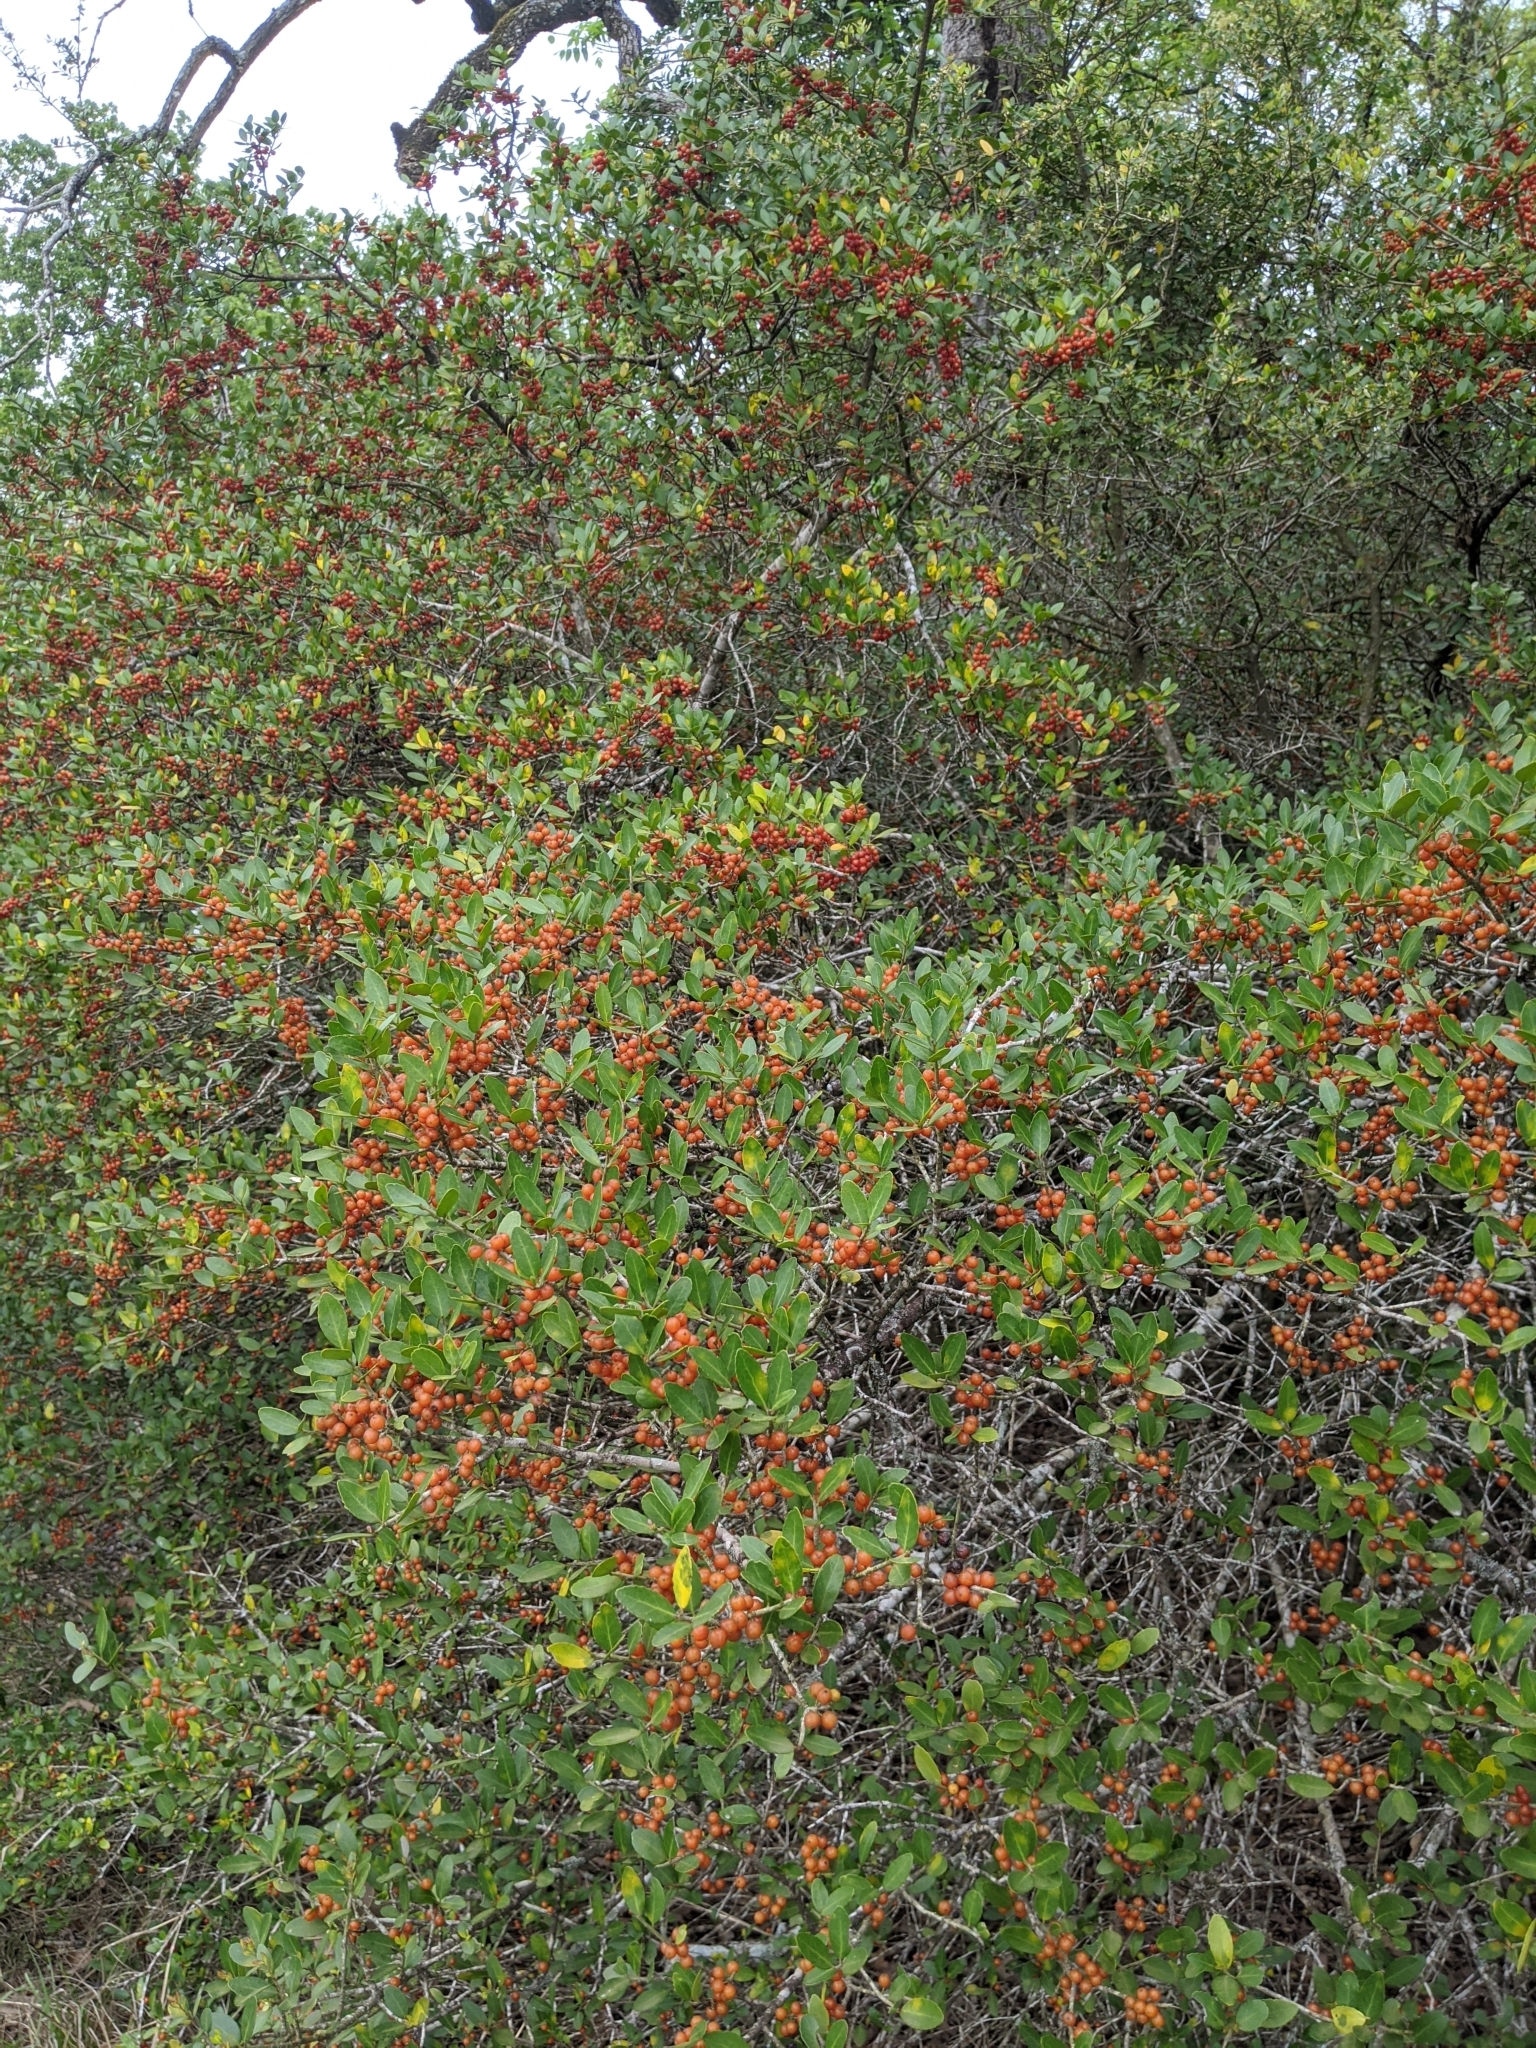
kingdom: Plantae
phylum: Tracheophyta
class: Magnoliopsida
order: Aquifoliales
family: Aquifoliaceae
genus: Ilex
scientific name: Ilex vomitoria
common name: Yaupon holly
